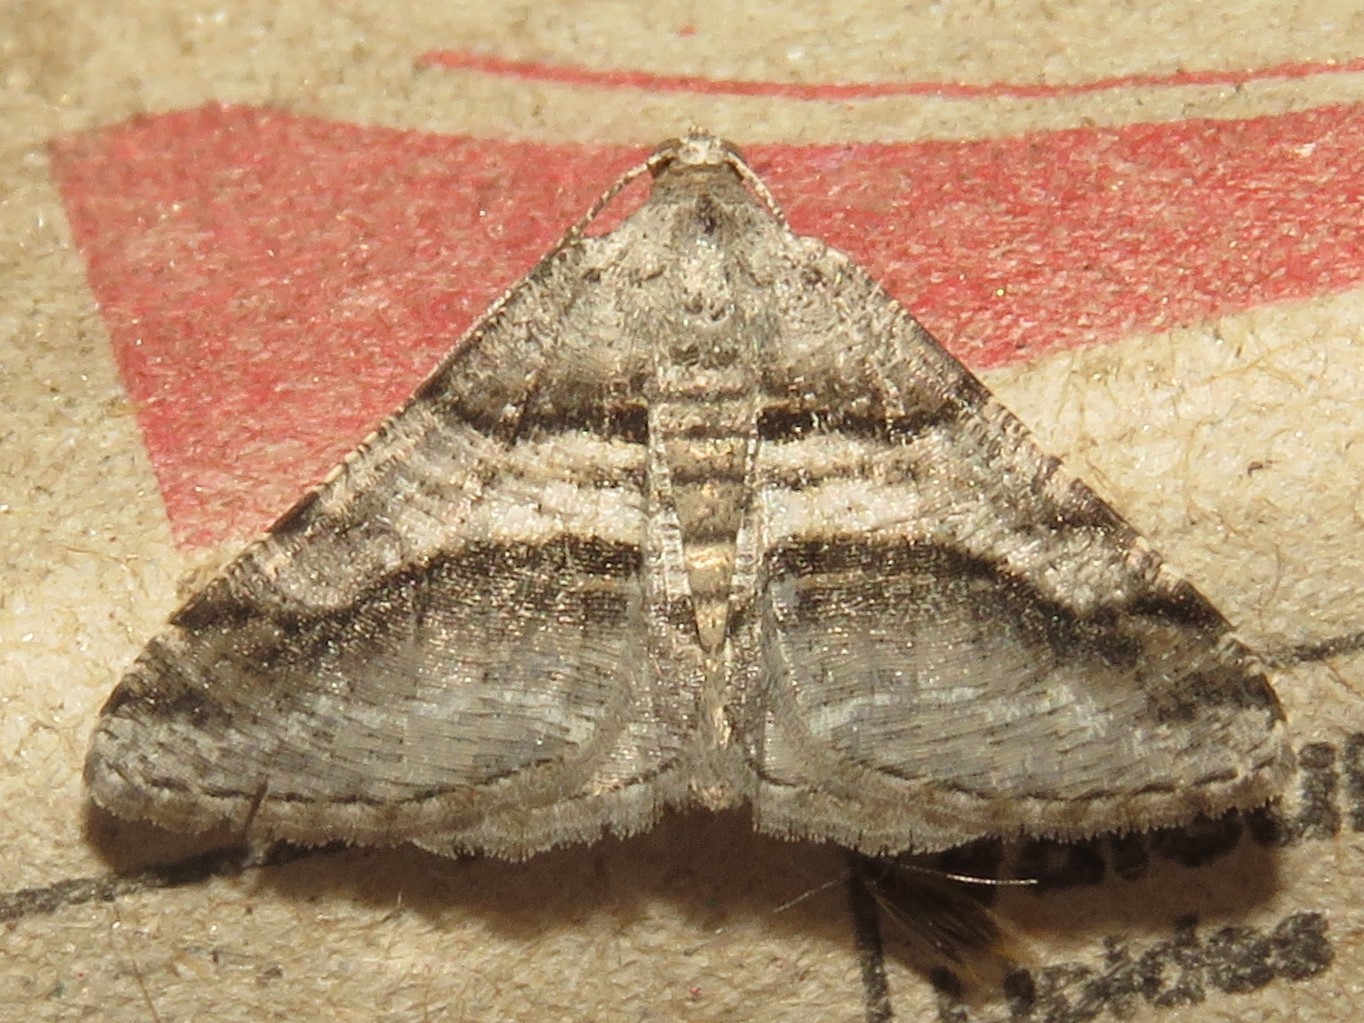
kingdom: Animalia
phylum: Arthropoda
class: Insecta
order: Lepidoptera
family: Geometridae
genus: Digrammia
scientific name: Digrammia continuata
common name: Curve-lined angle
